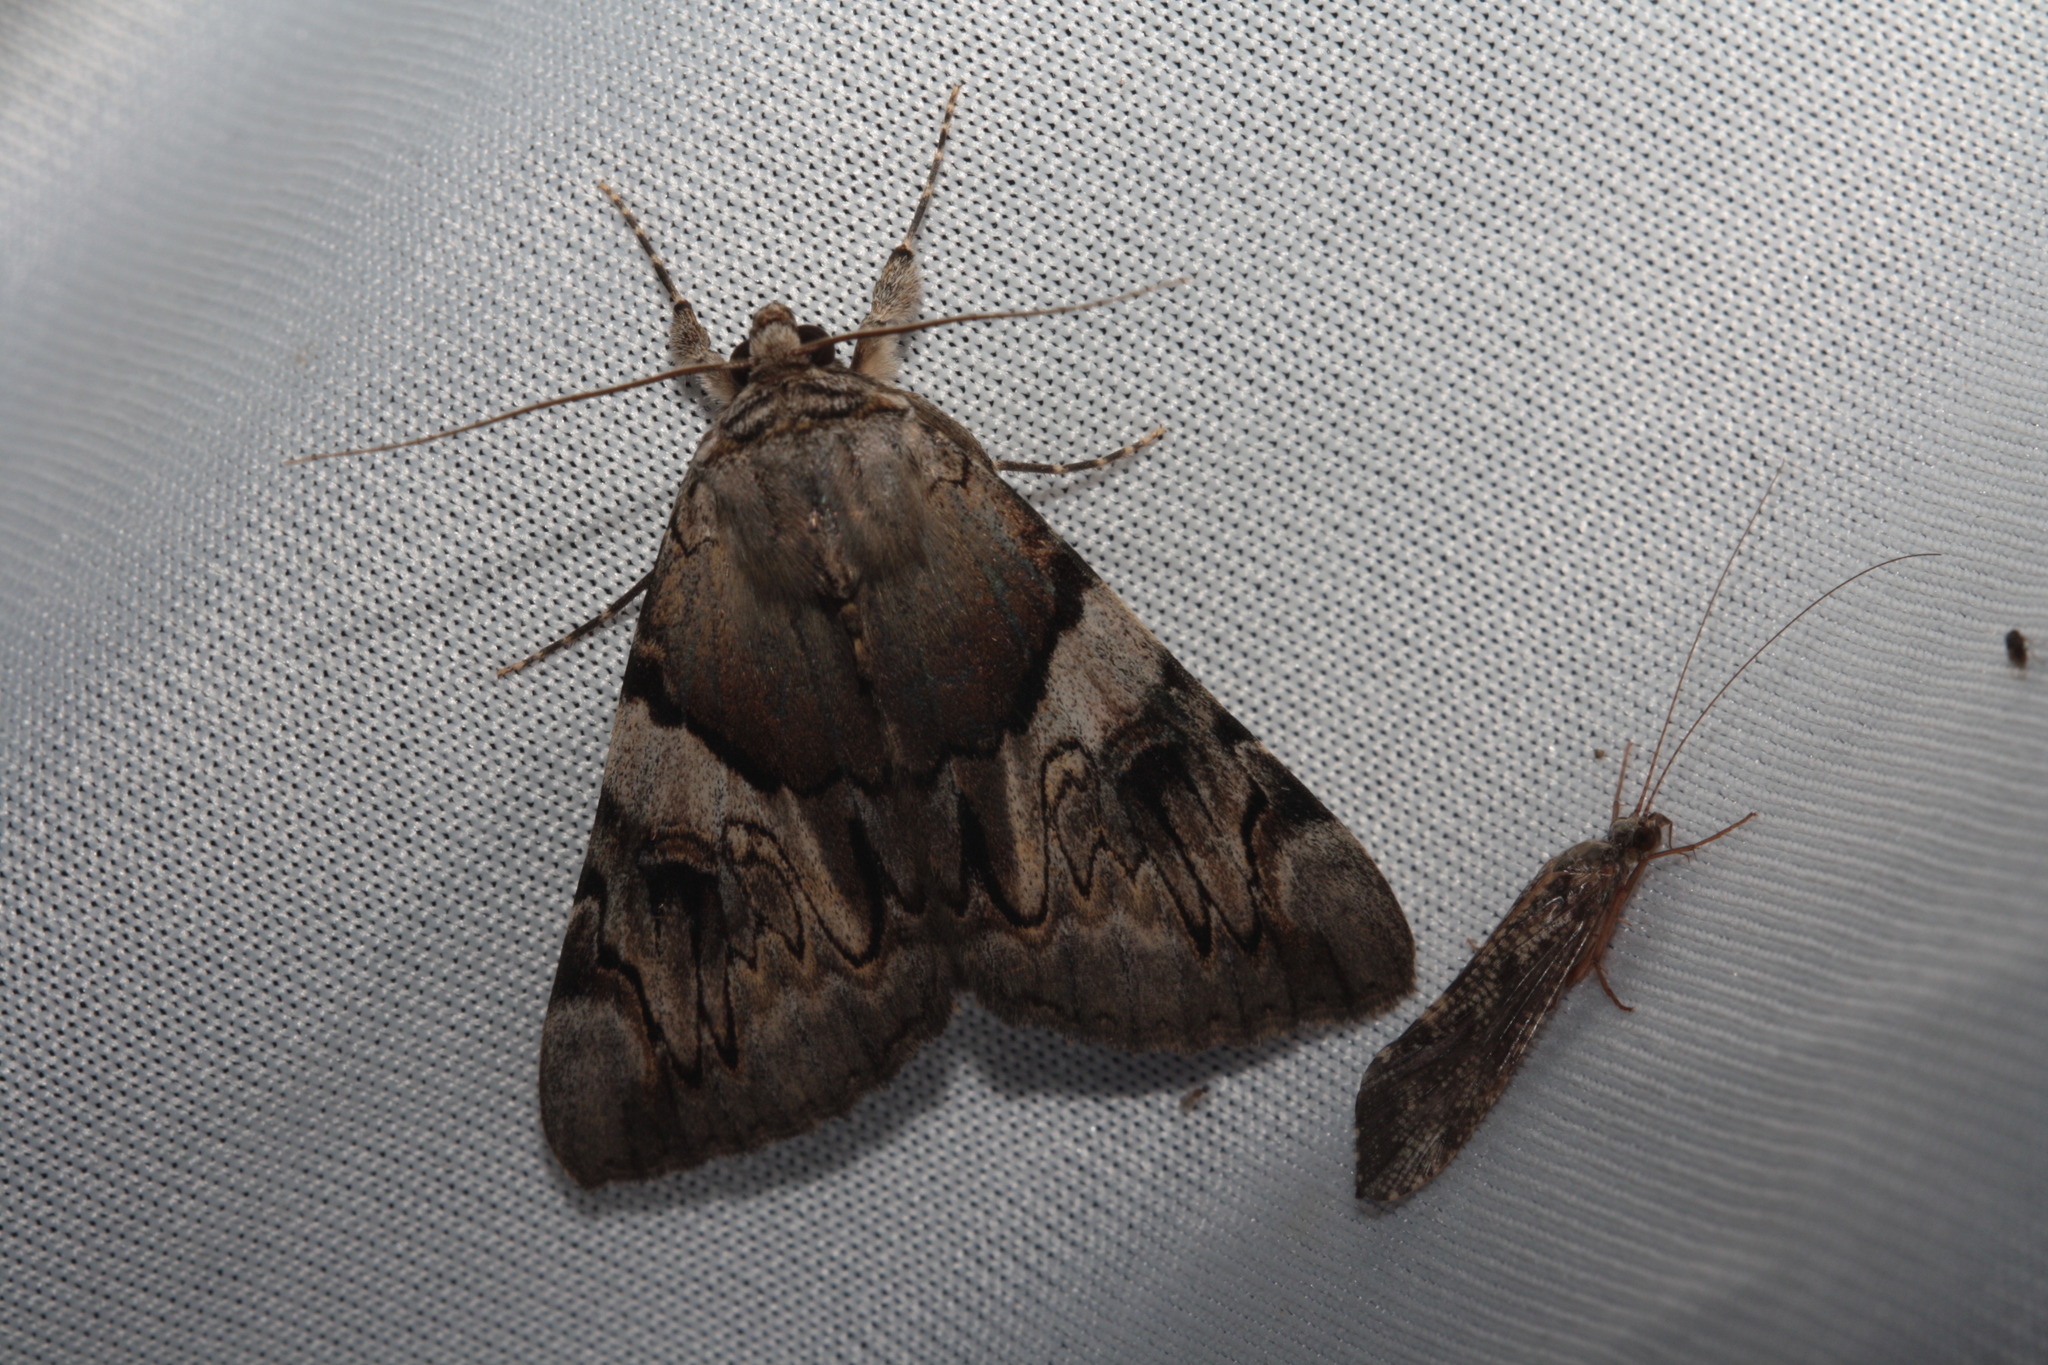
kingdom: Animalia
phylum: Arthropoda
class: Insecta
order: Lepidoptera
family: Erebidae
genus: Catocala
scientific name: Catocala fulminea
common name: Yellow bands underwing
